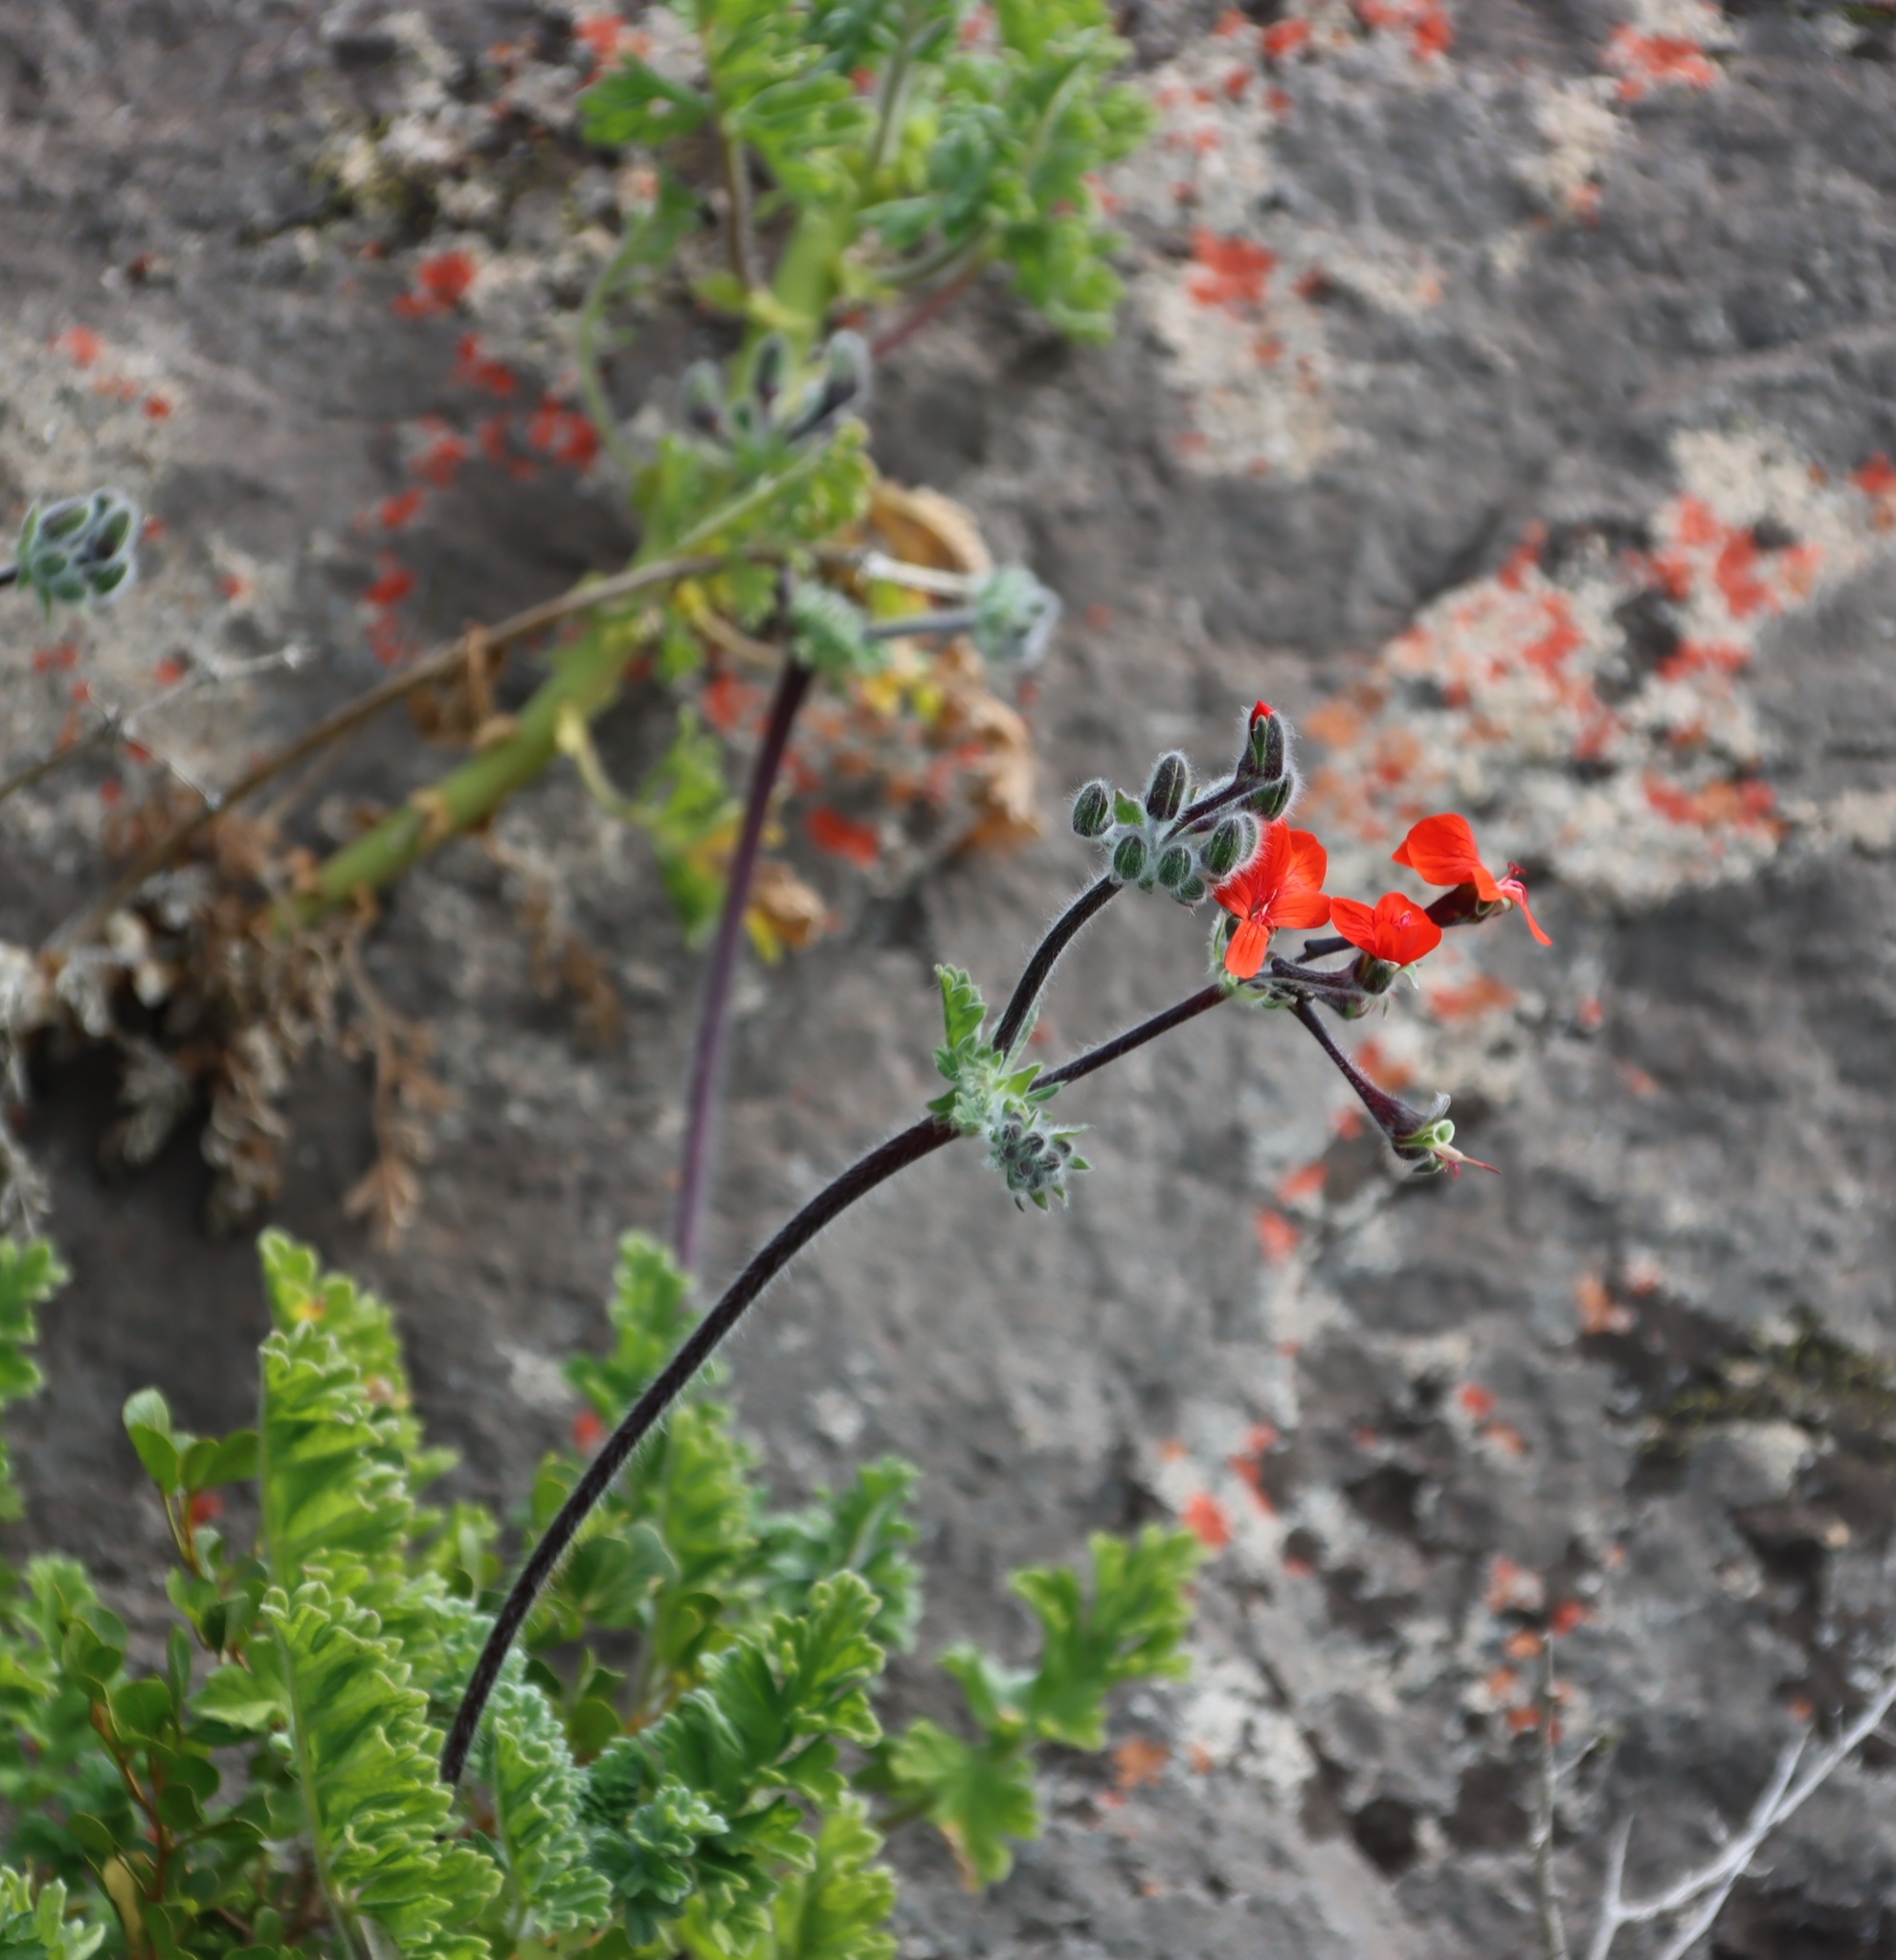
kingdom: Plantae
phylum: Tracheophyta
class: Magnoliopsida
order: Geraniales
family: Geraniaceae
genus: Pelargonium
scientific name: Pelargonium fulgidum
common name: Celandine-leaf pelargonium
